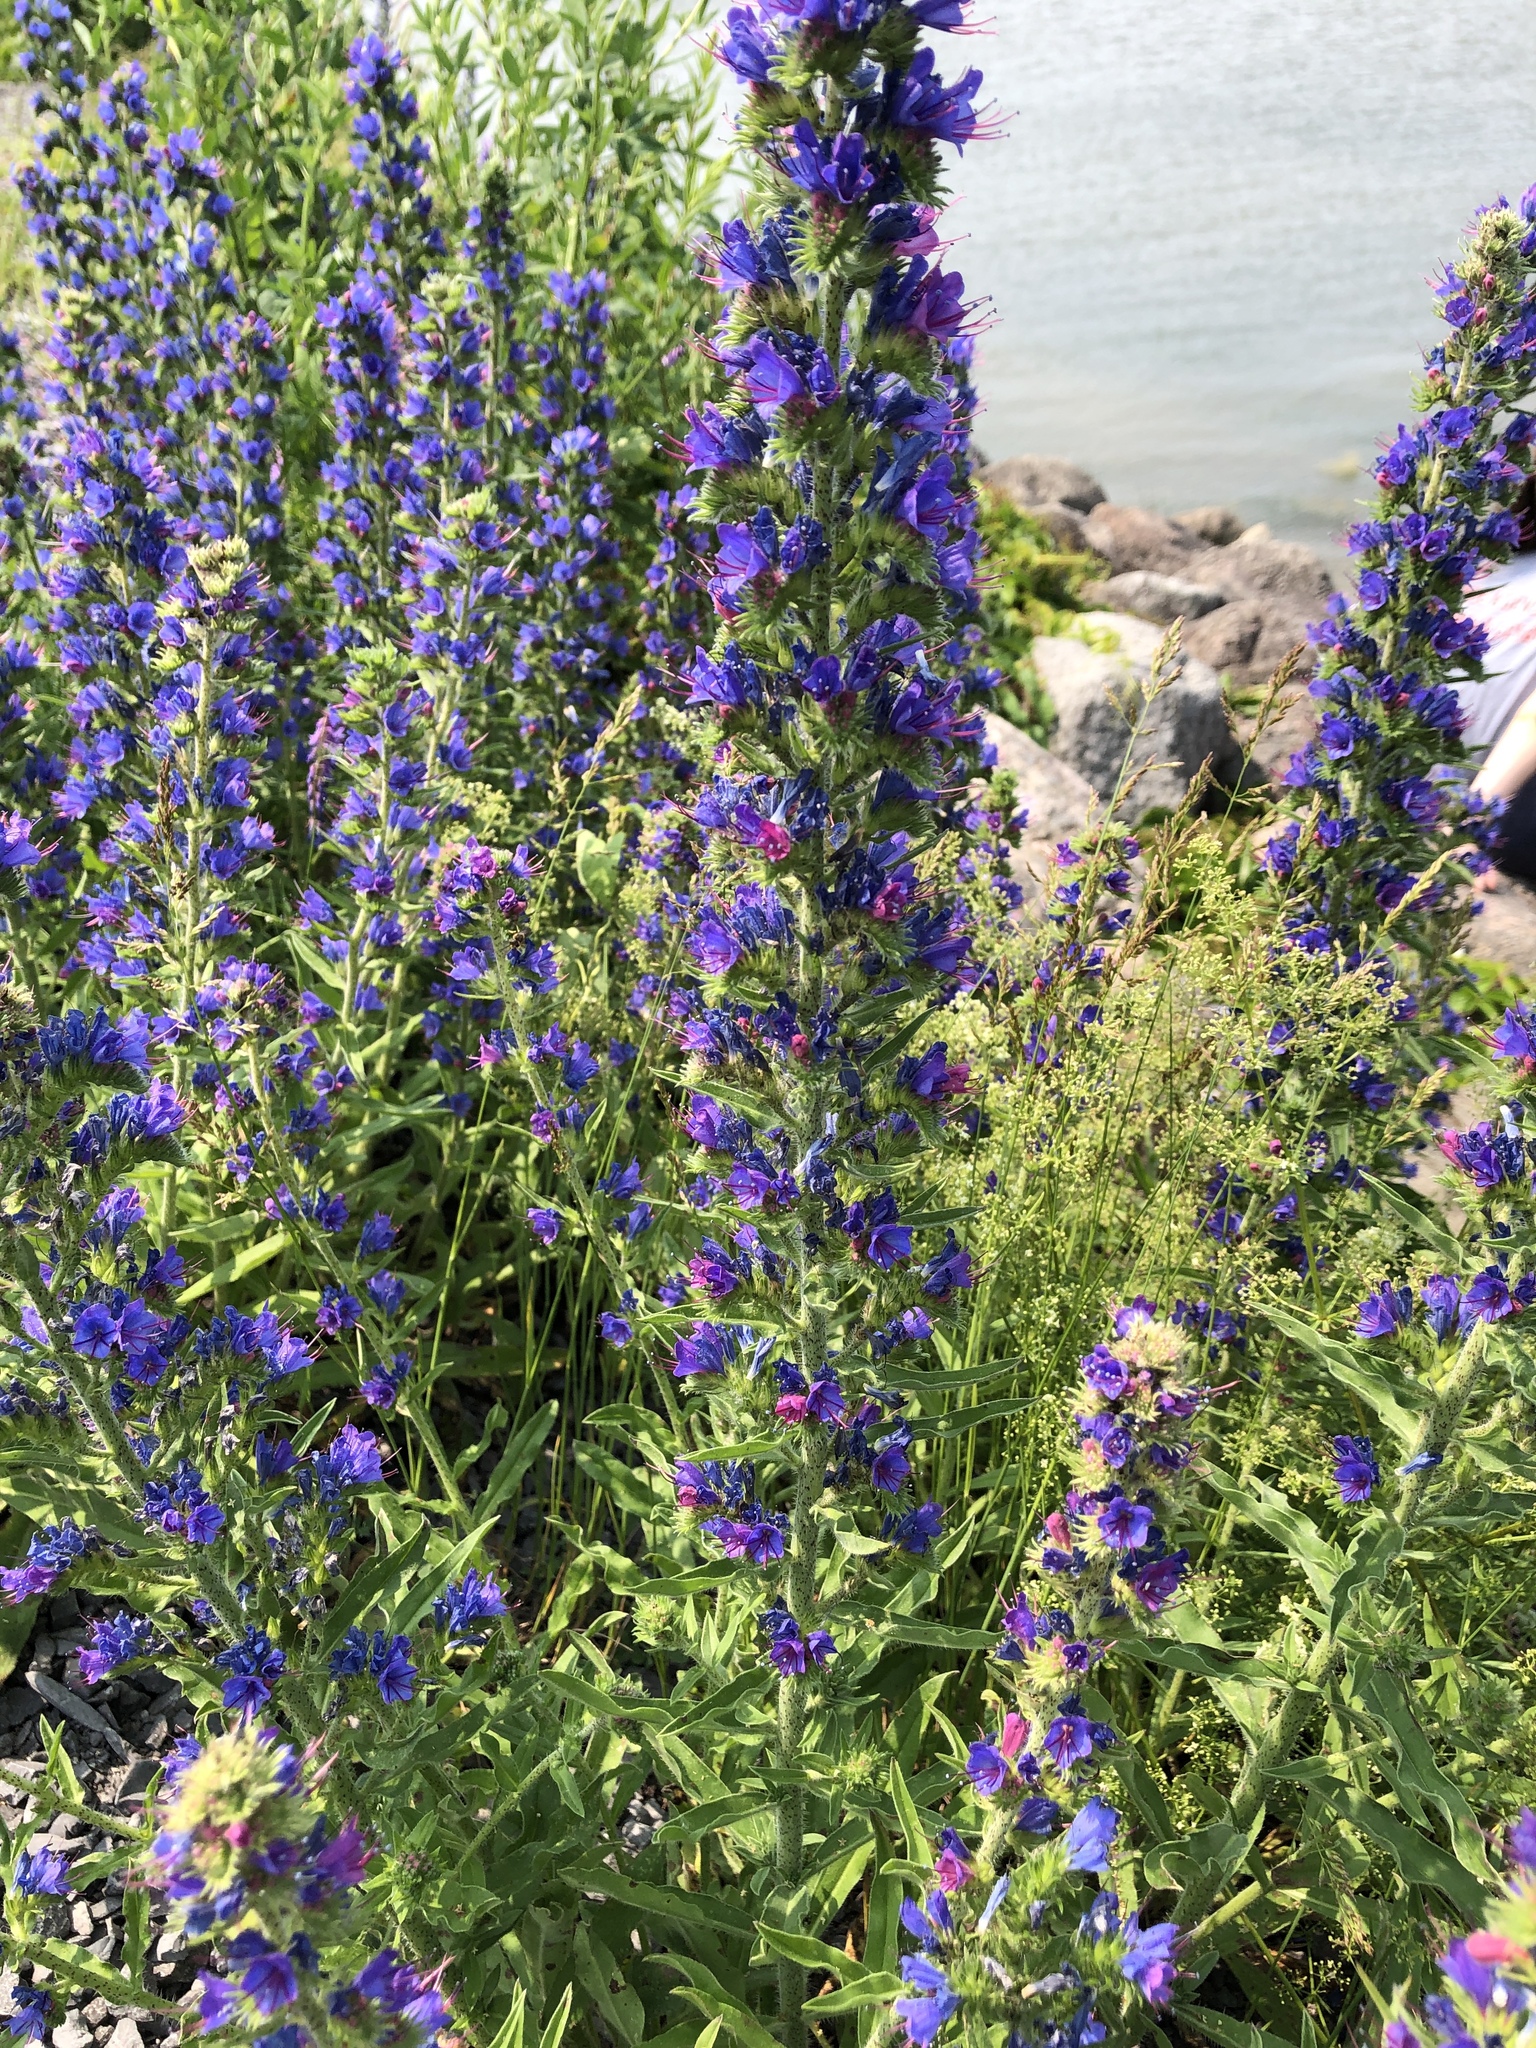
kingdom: Plantae
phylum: Tracheophyta
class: Magnoliopsida
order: Boraginales
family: Boraginaceae
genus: Echium
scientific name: Echium vulgare
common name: Common viper's bugloss
